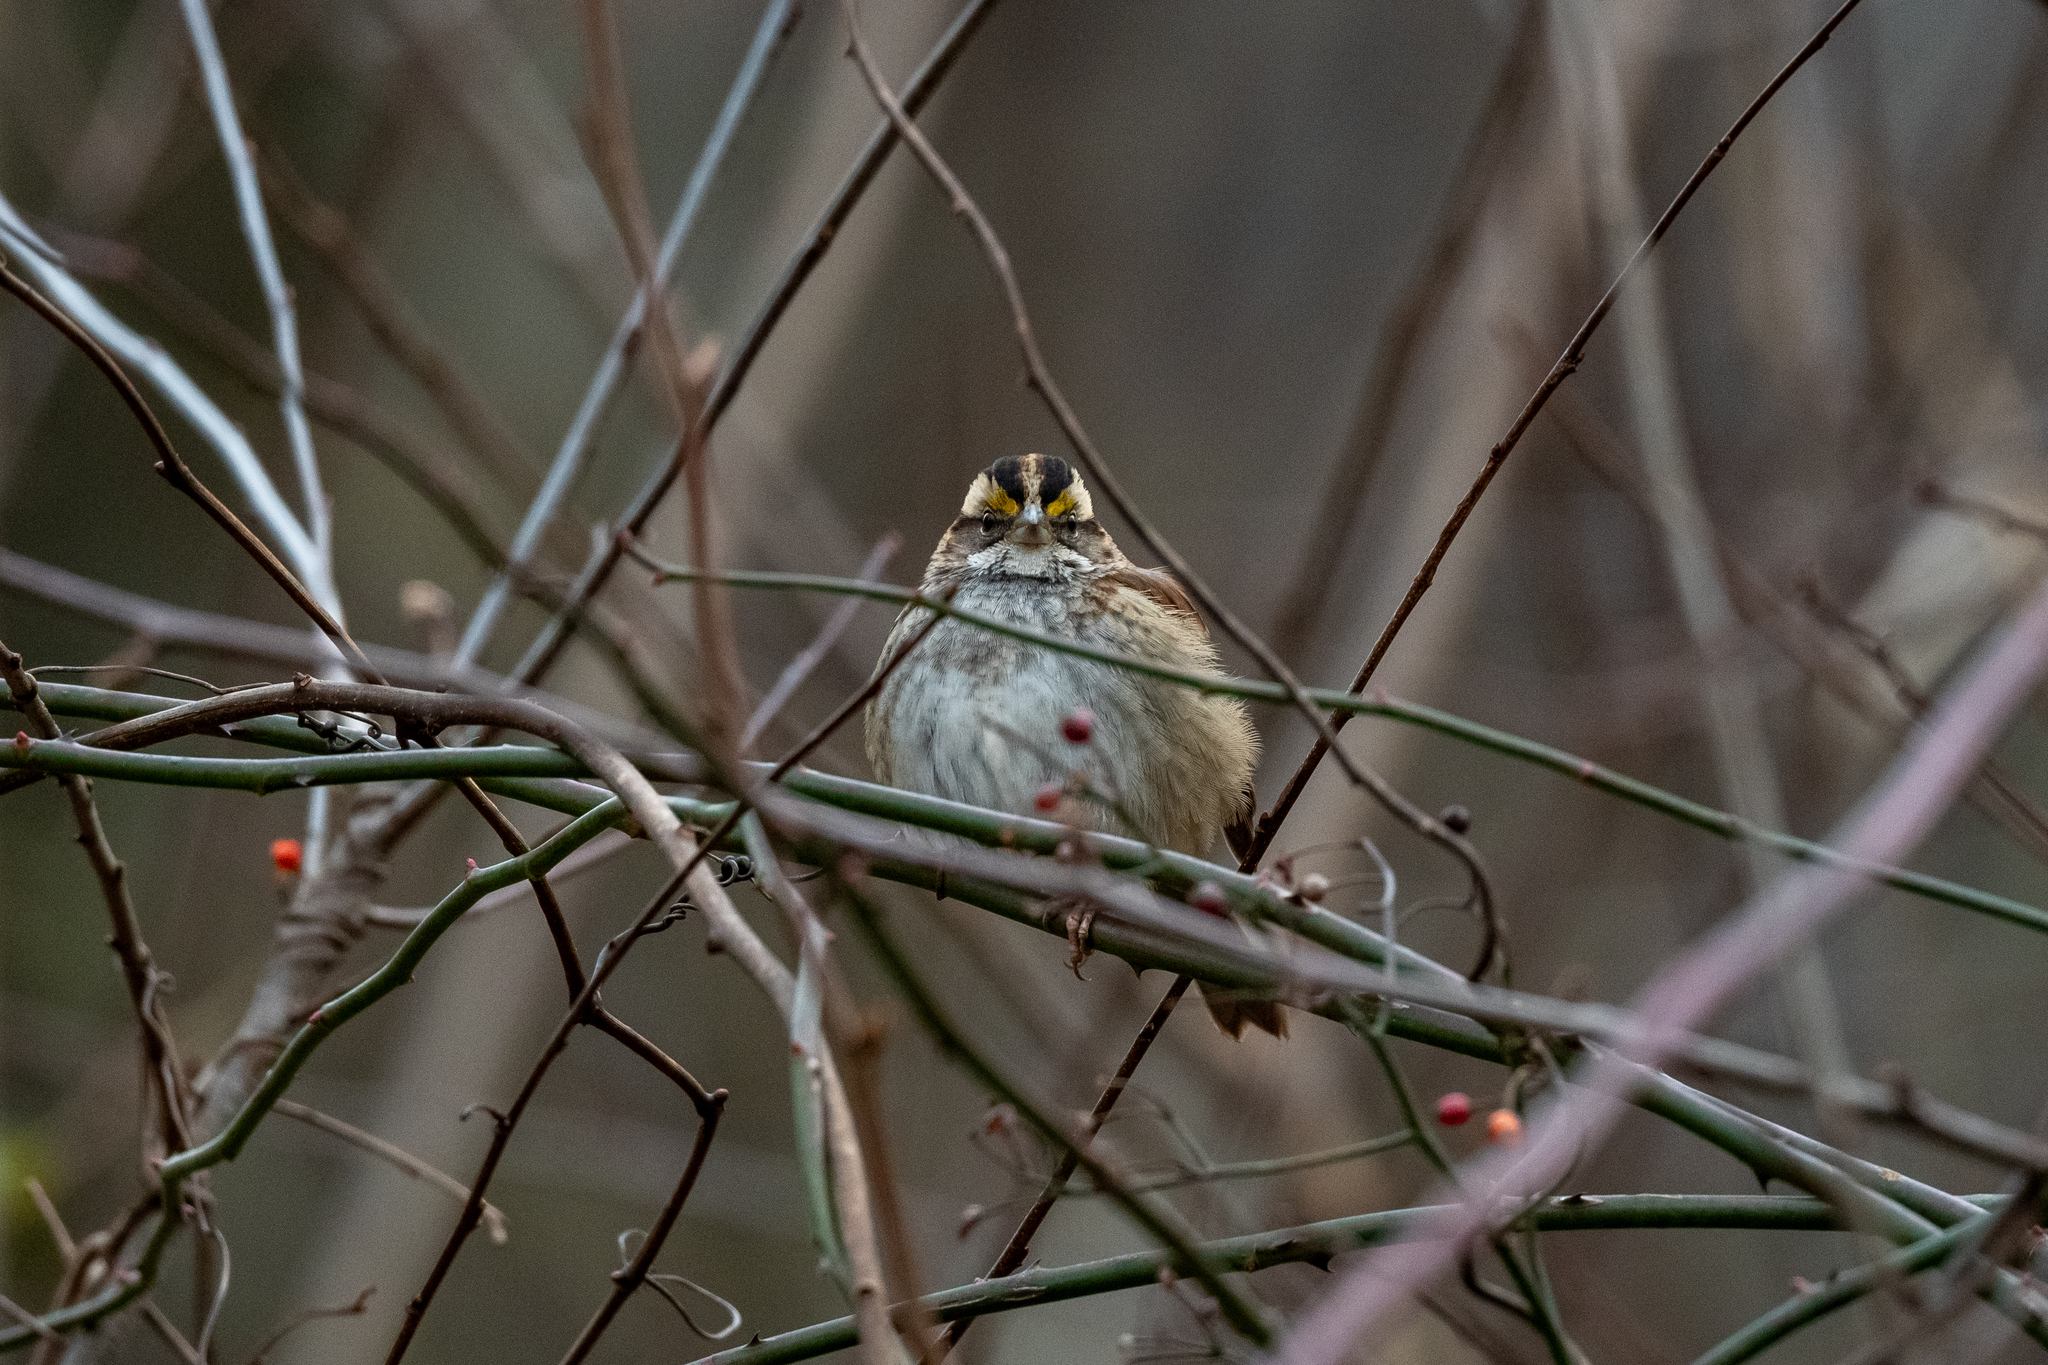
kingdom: Animalia
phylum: Chordata
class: Aves
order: Passeriformes
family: Passerellidae
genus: Zonotrichia
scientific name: Zonotrichia albicollis
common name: White-throated sparrow
